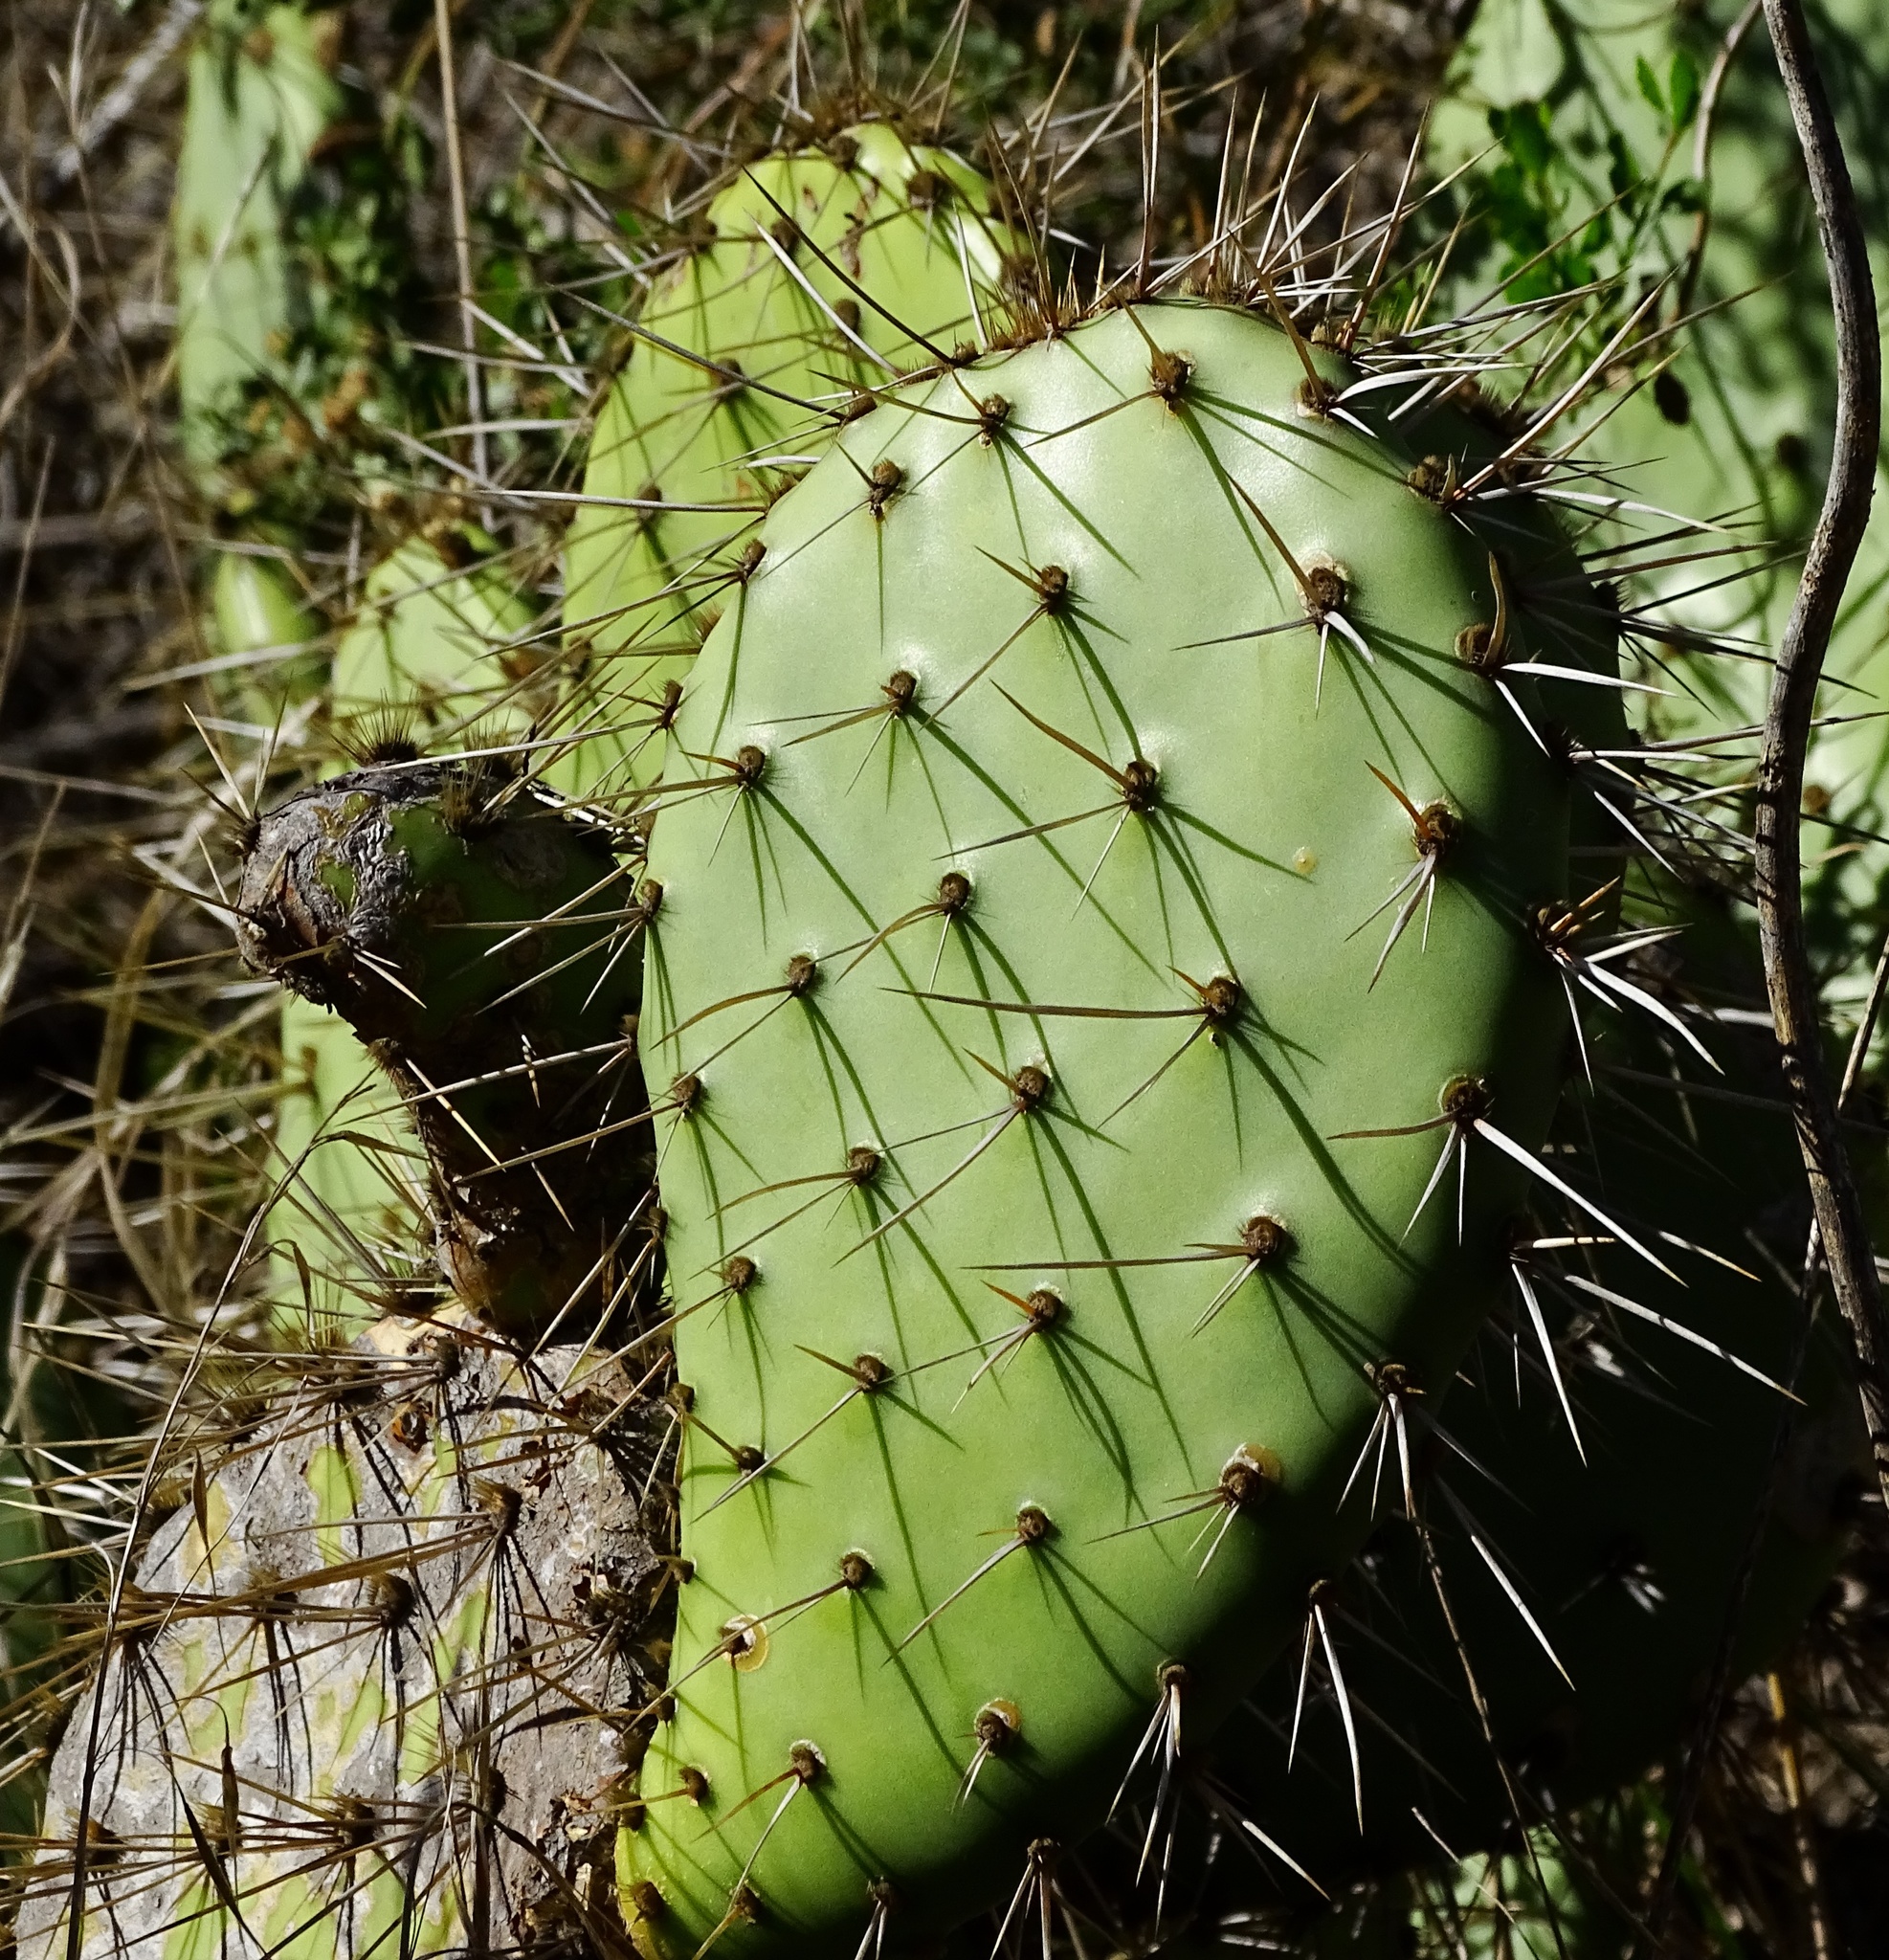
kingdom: Plantae
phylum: Tracheophyta
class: Magnoliopsida
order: Caryophyllales
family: Cactaceae
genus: Opuntia
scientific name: Opuntia littoralis
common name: Coastal prickly-pear
